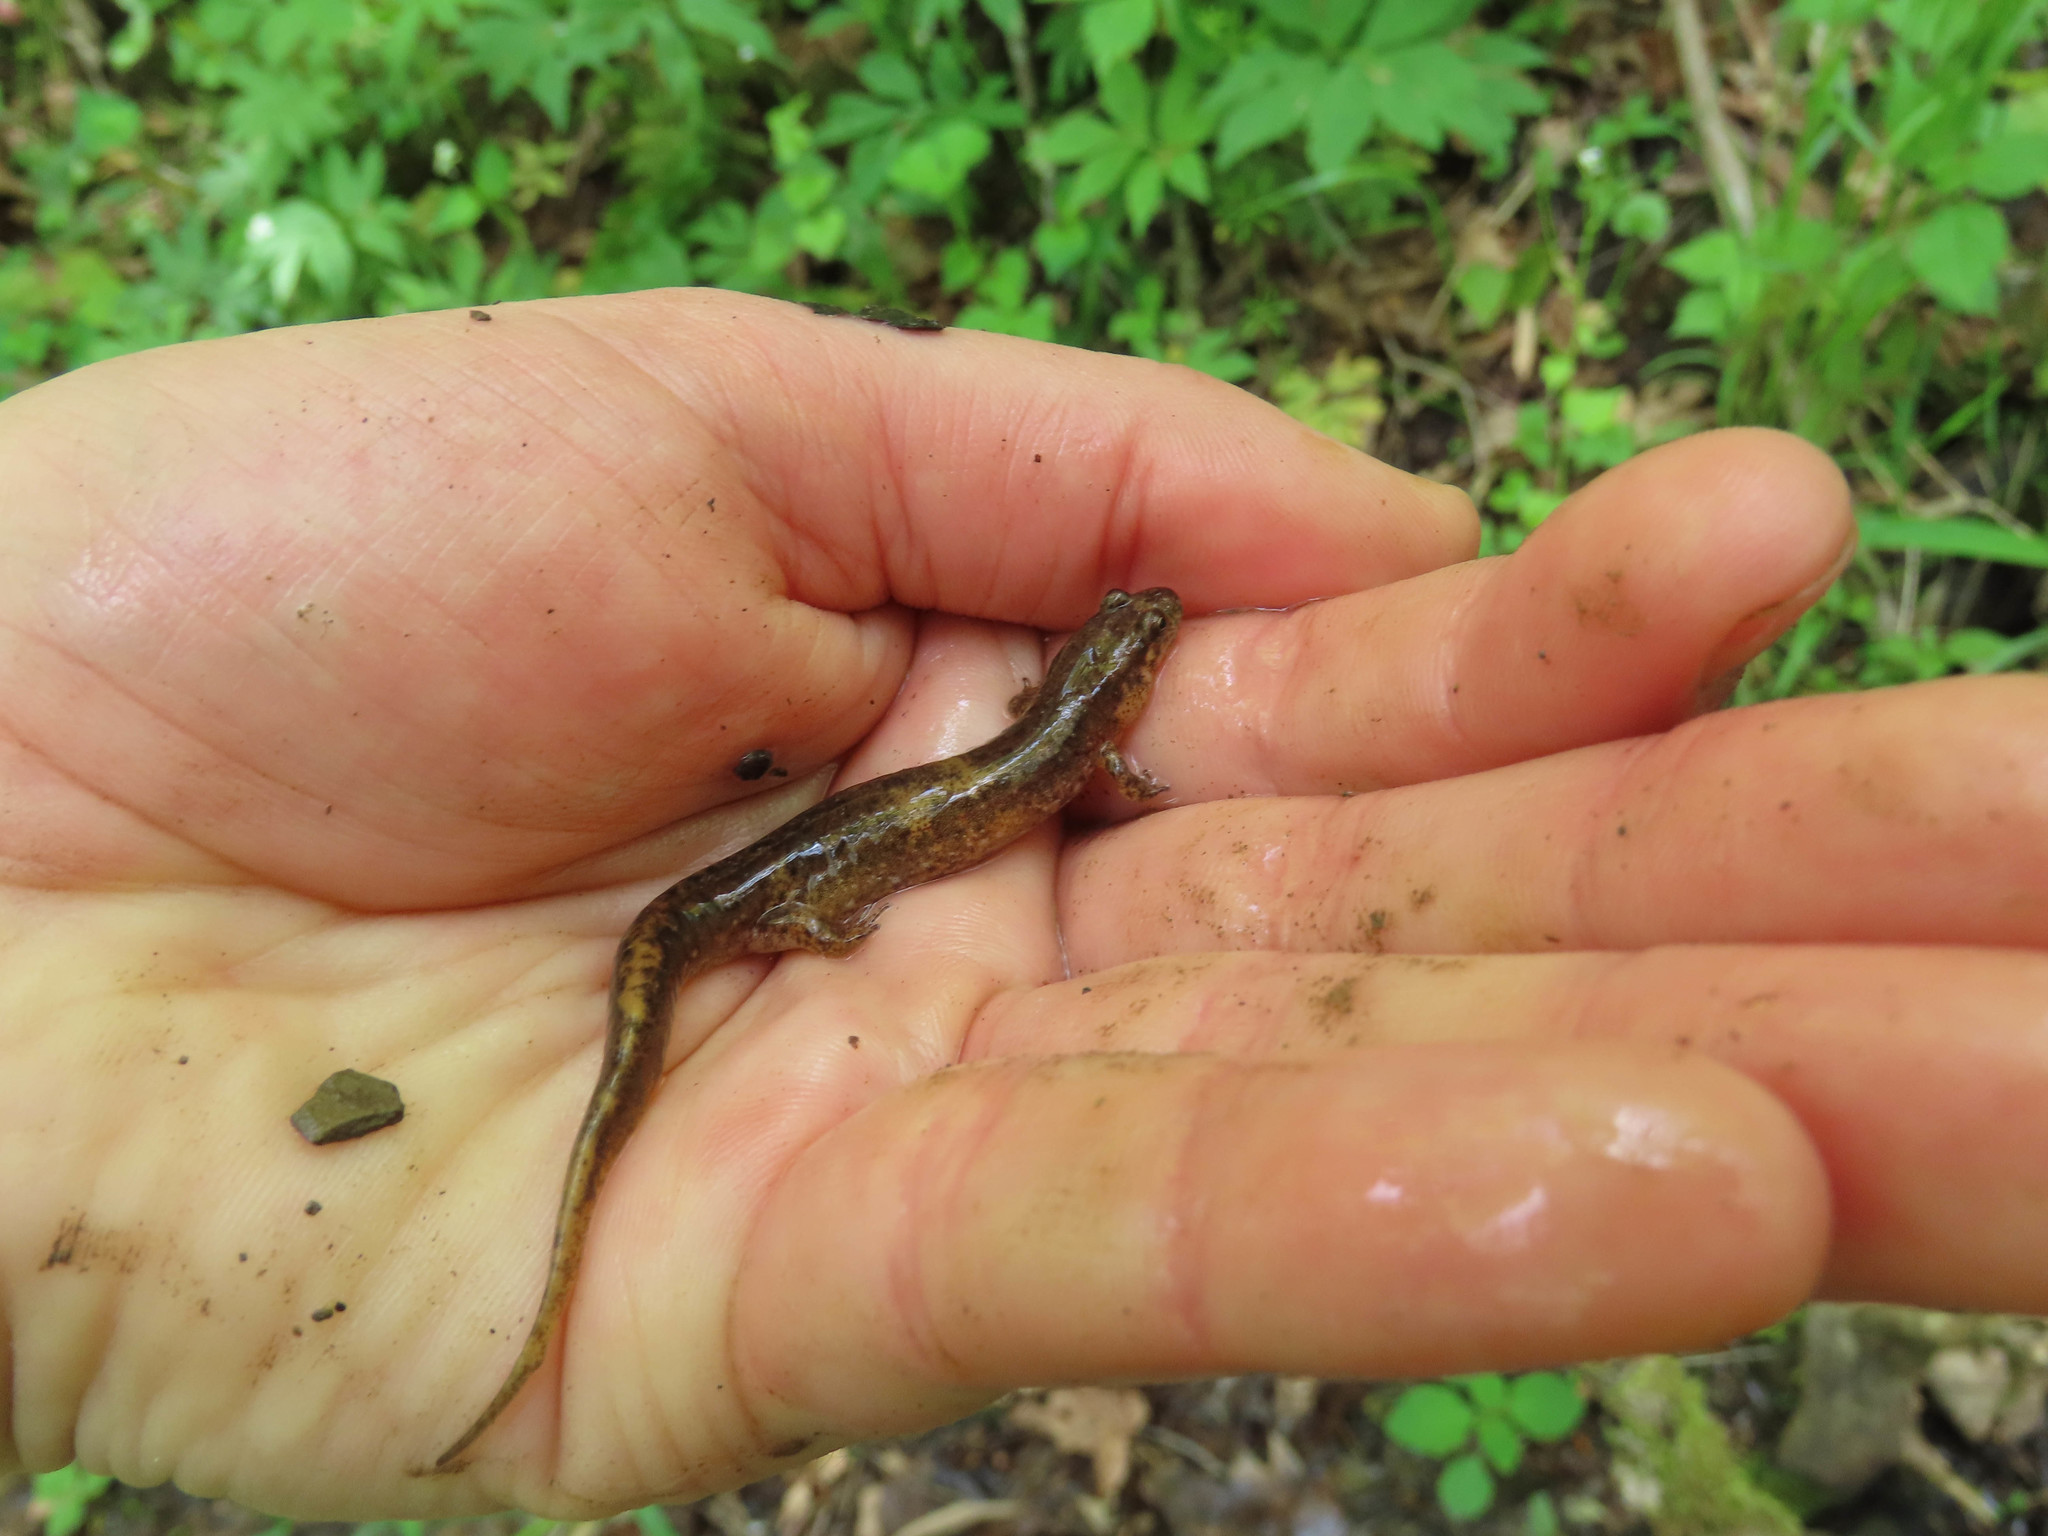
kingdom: Animalia
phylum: Chordata
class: Amphibia
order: Caudata
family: Plethodontidae
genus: Desmognathus
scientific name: Desmognathus fuscus
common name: Northern dusky salamander
